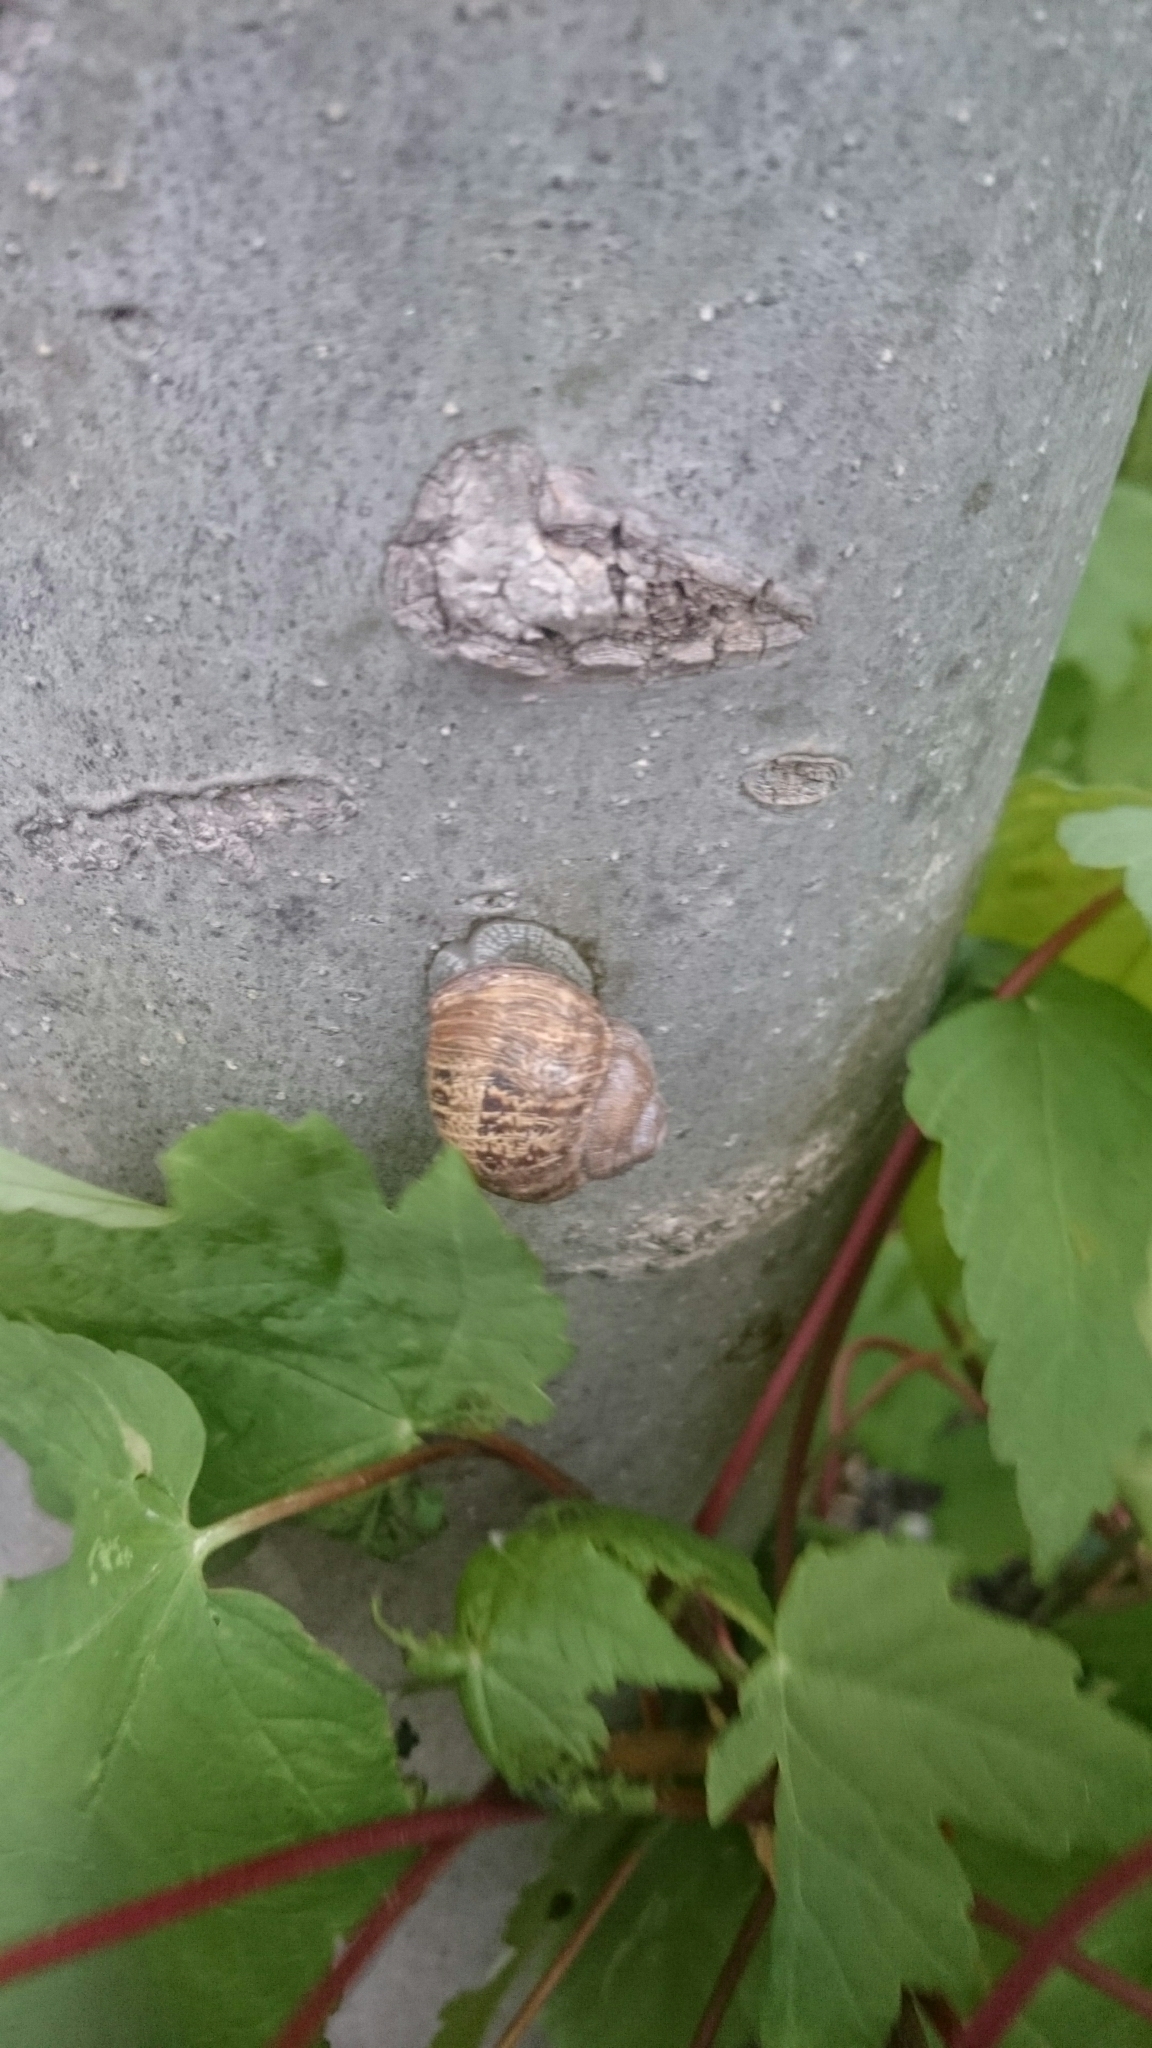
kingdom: Animalia
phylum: Mollusca
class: Gastropoda
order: Stylommatophora
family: Helicidae
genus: Cornu
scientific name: Cornu aspersum
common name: Brown garden snail
